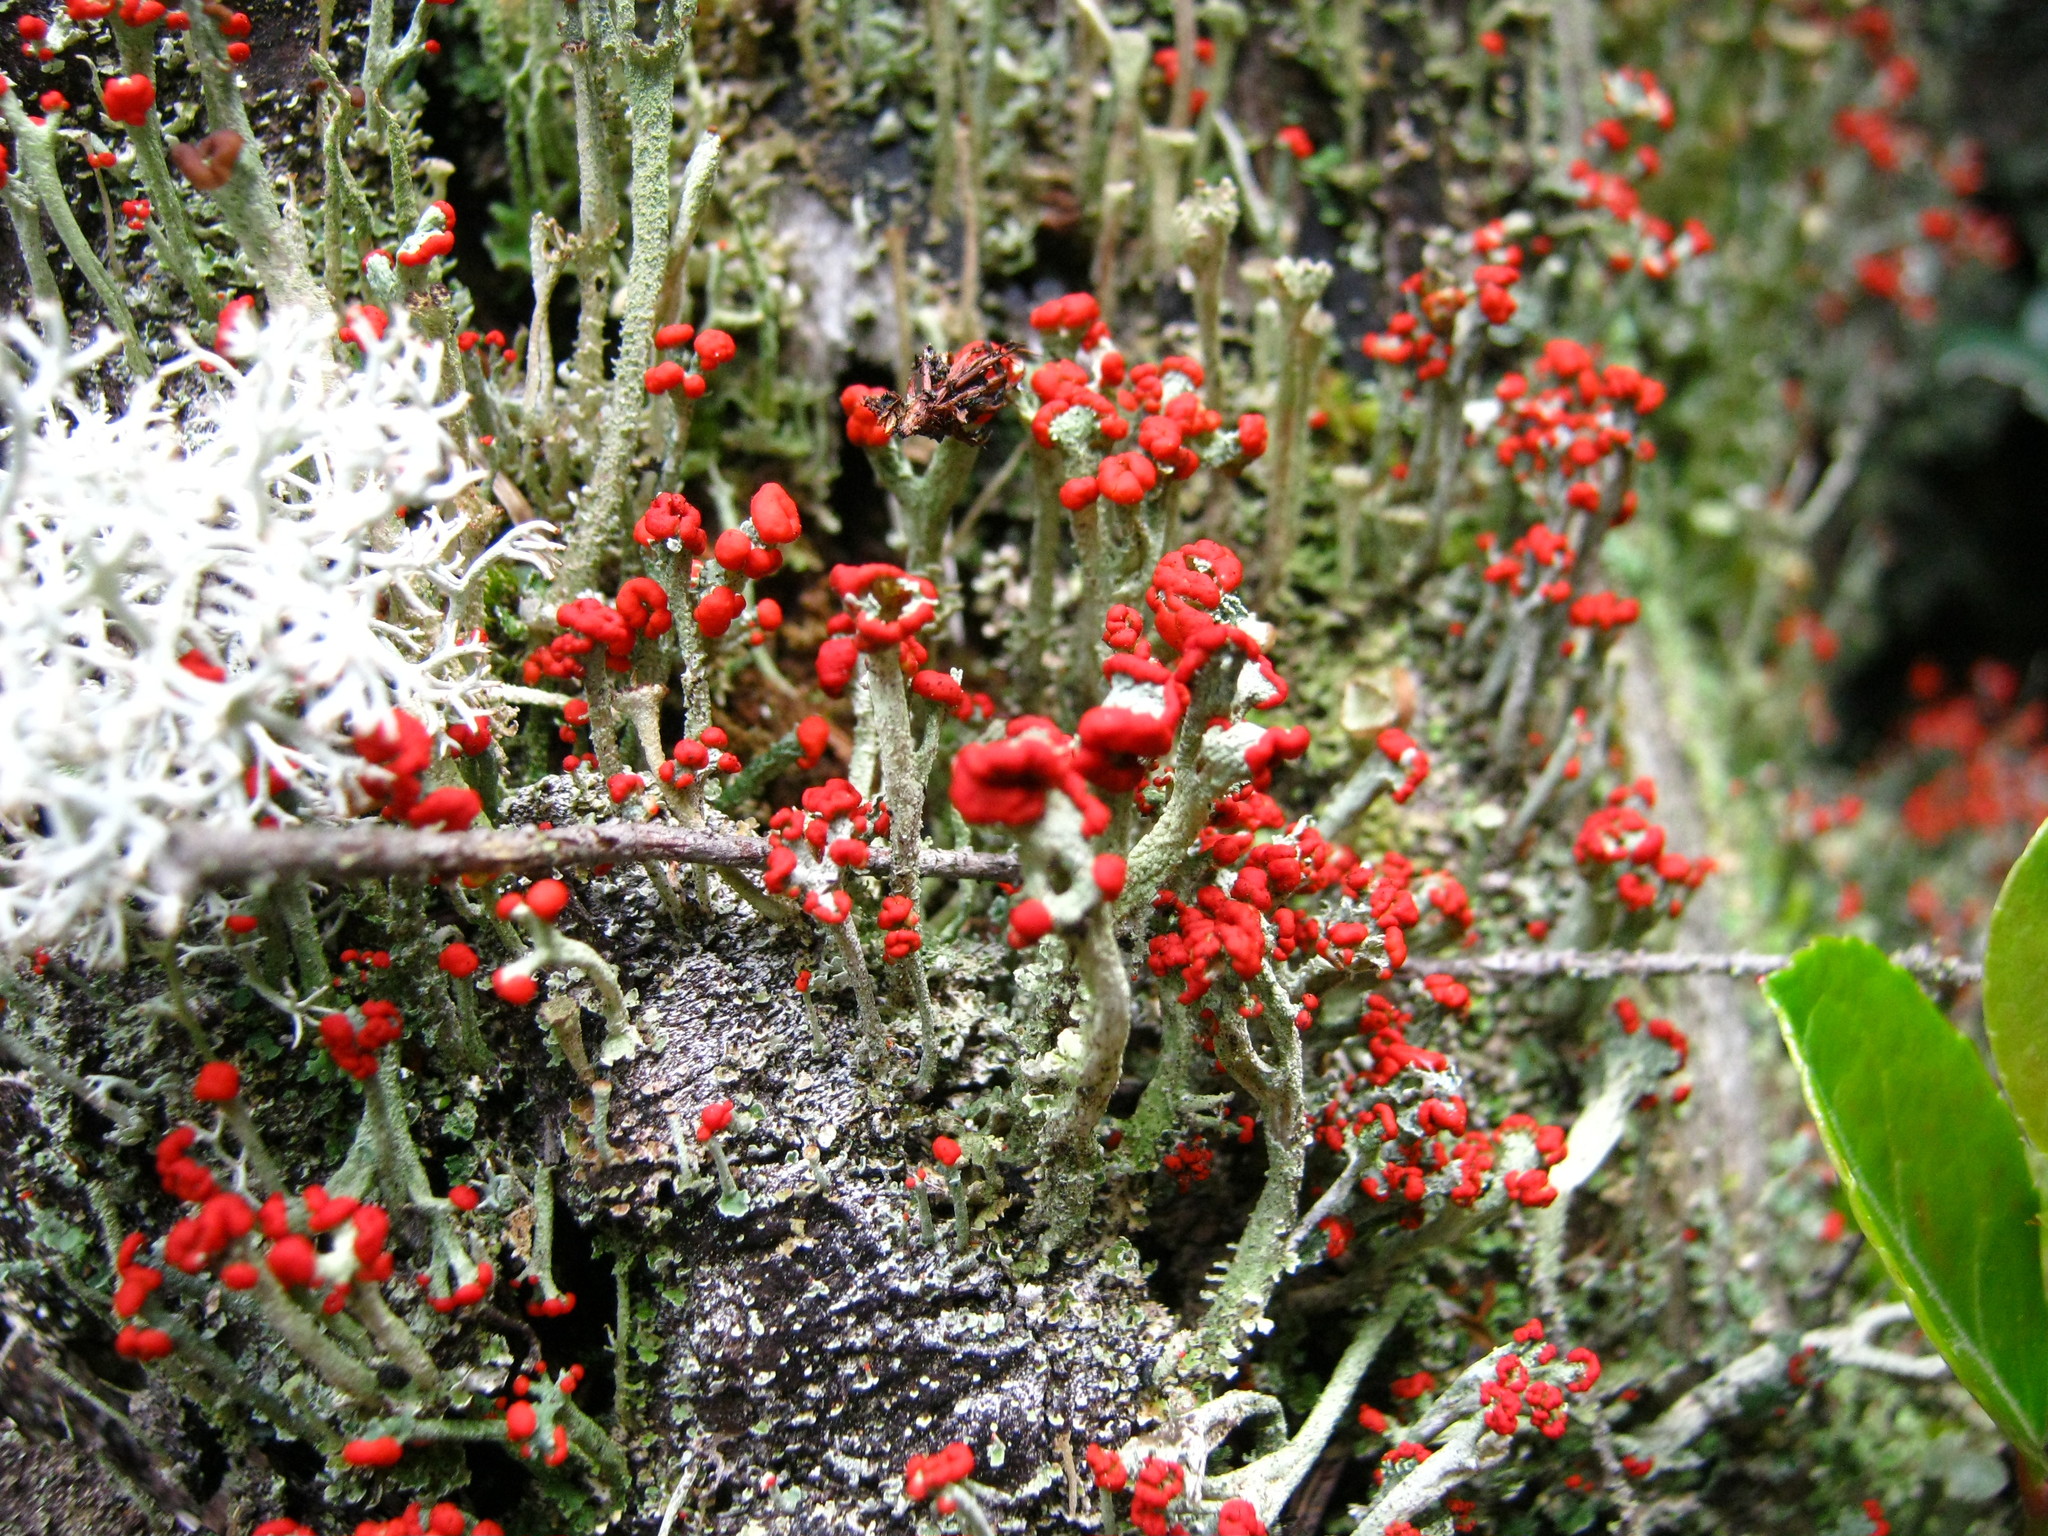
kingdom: Fungi
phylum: Ascomycota
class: Lecanoromycetes
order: Lecanorales
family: Cladoniaceae
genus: Cladonia
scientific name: Cladonia cristatella
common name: British soldier lichen
